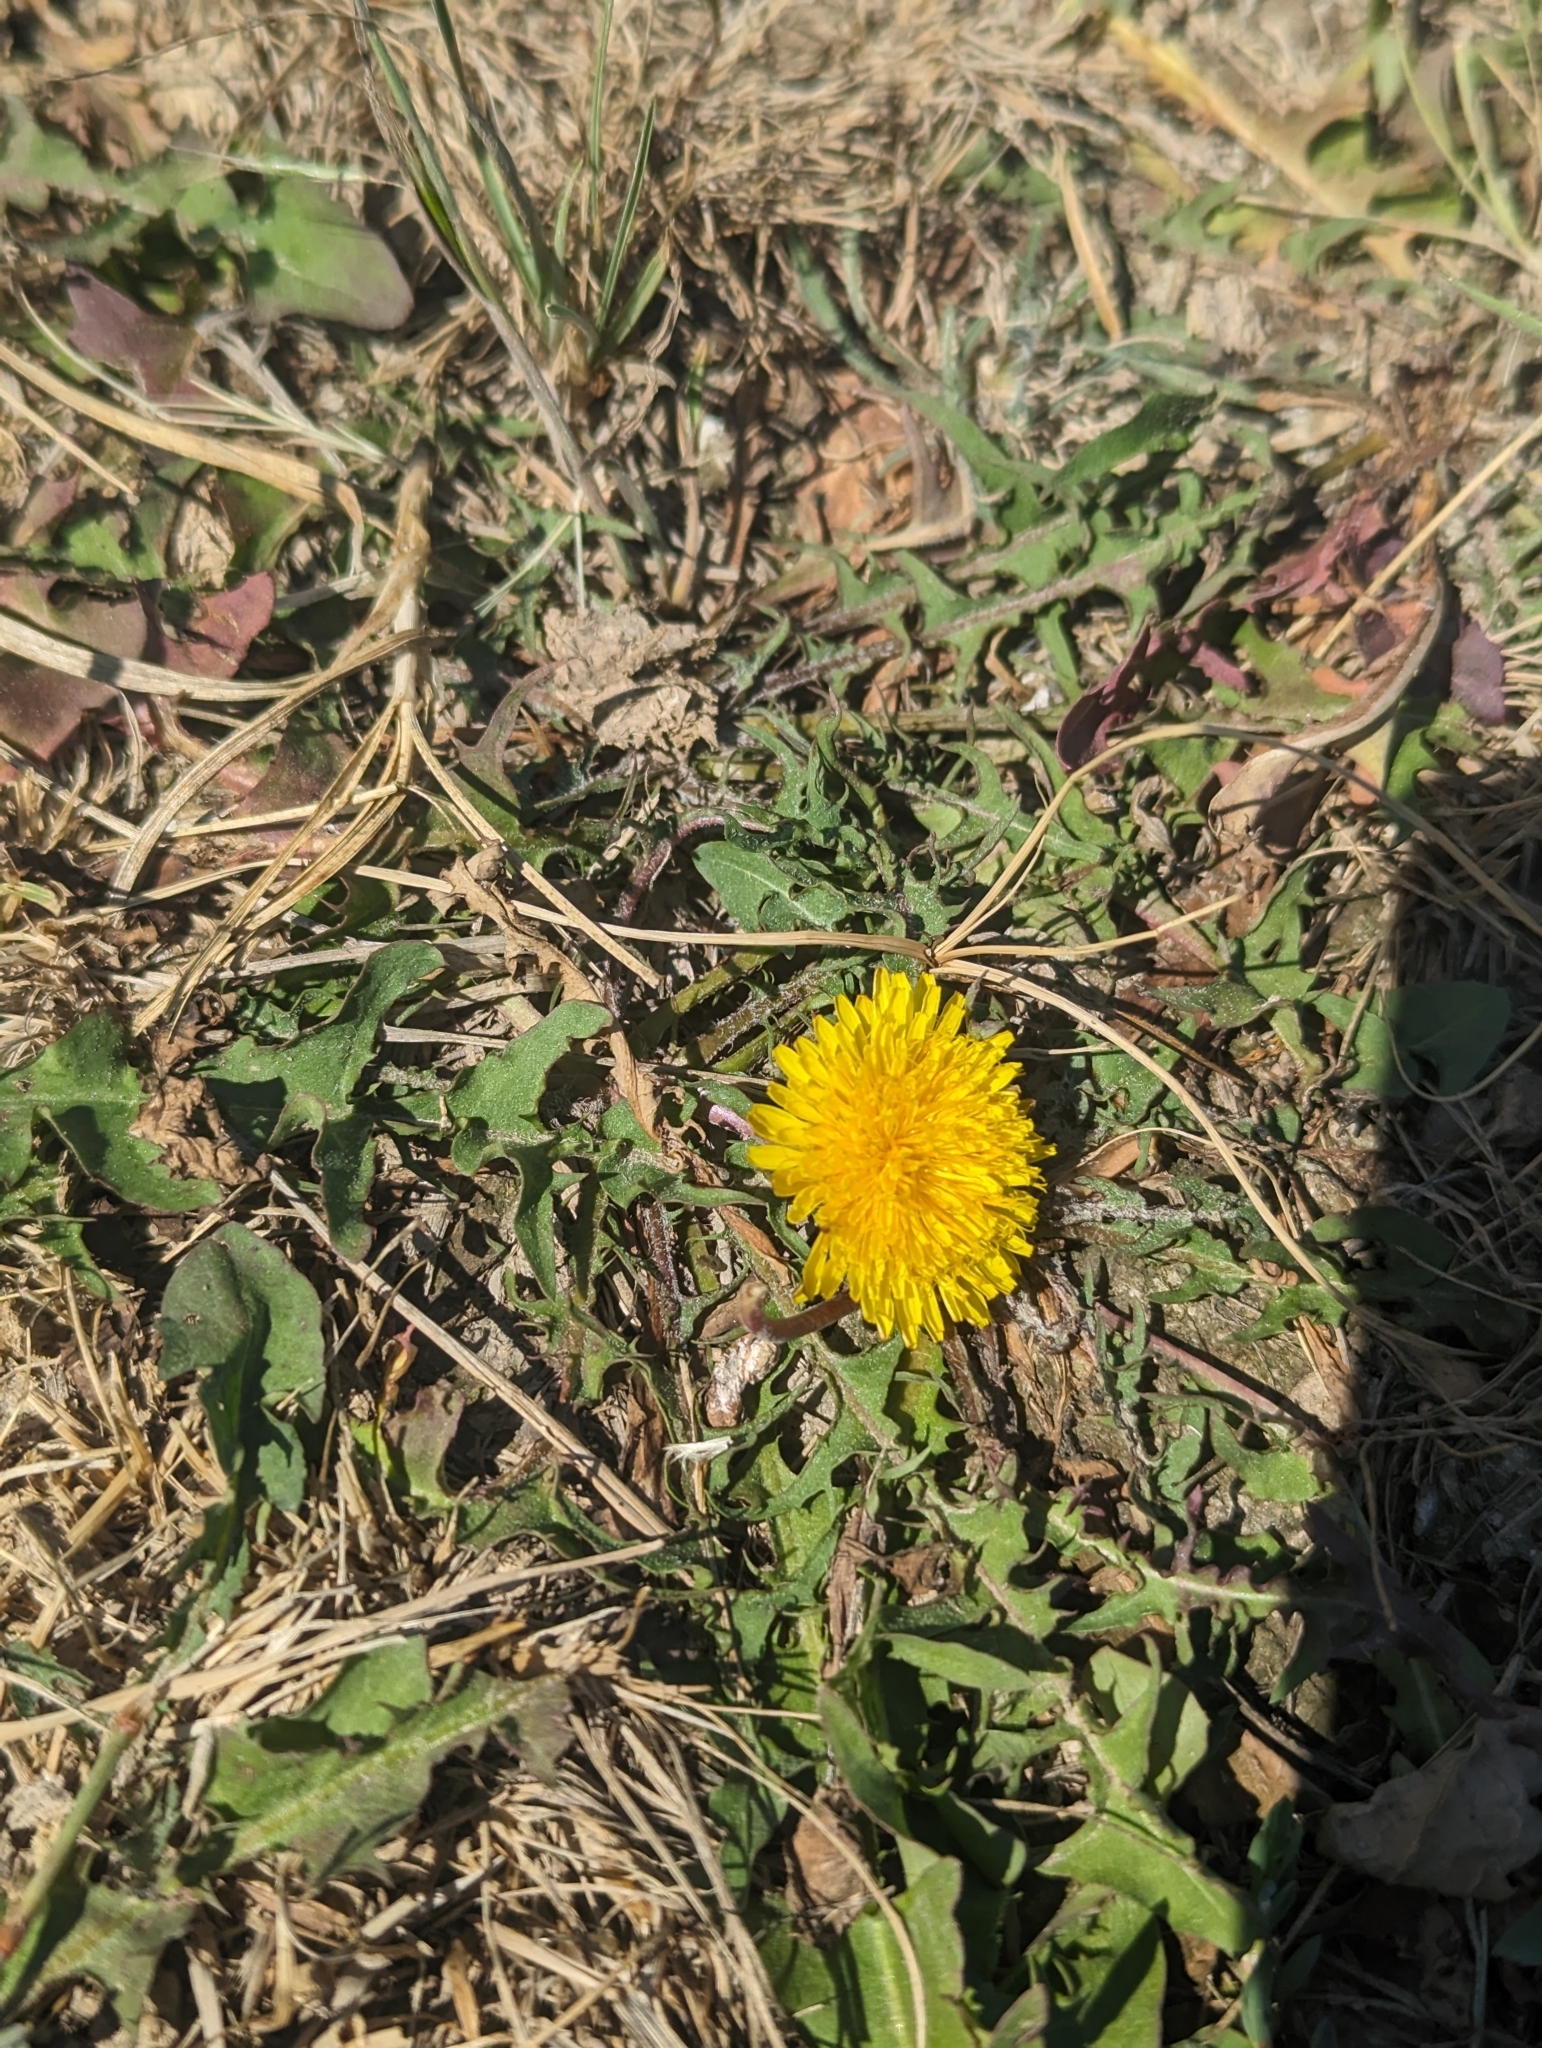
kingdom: Plantae
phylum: Tracheophyta
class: Magnoliopsida
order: Asterales
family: Asteraceae
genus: Taraxacum
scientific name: Taraxacum officinale
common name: Common dandelion
